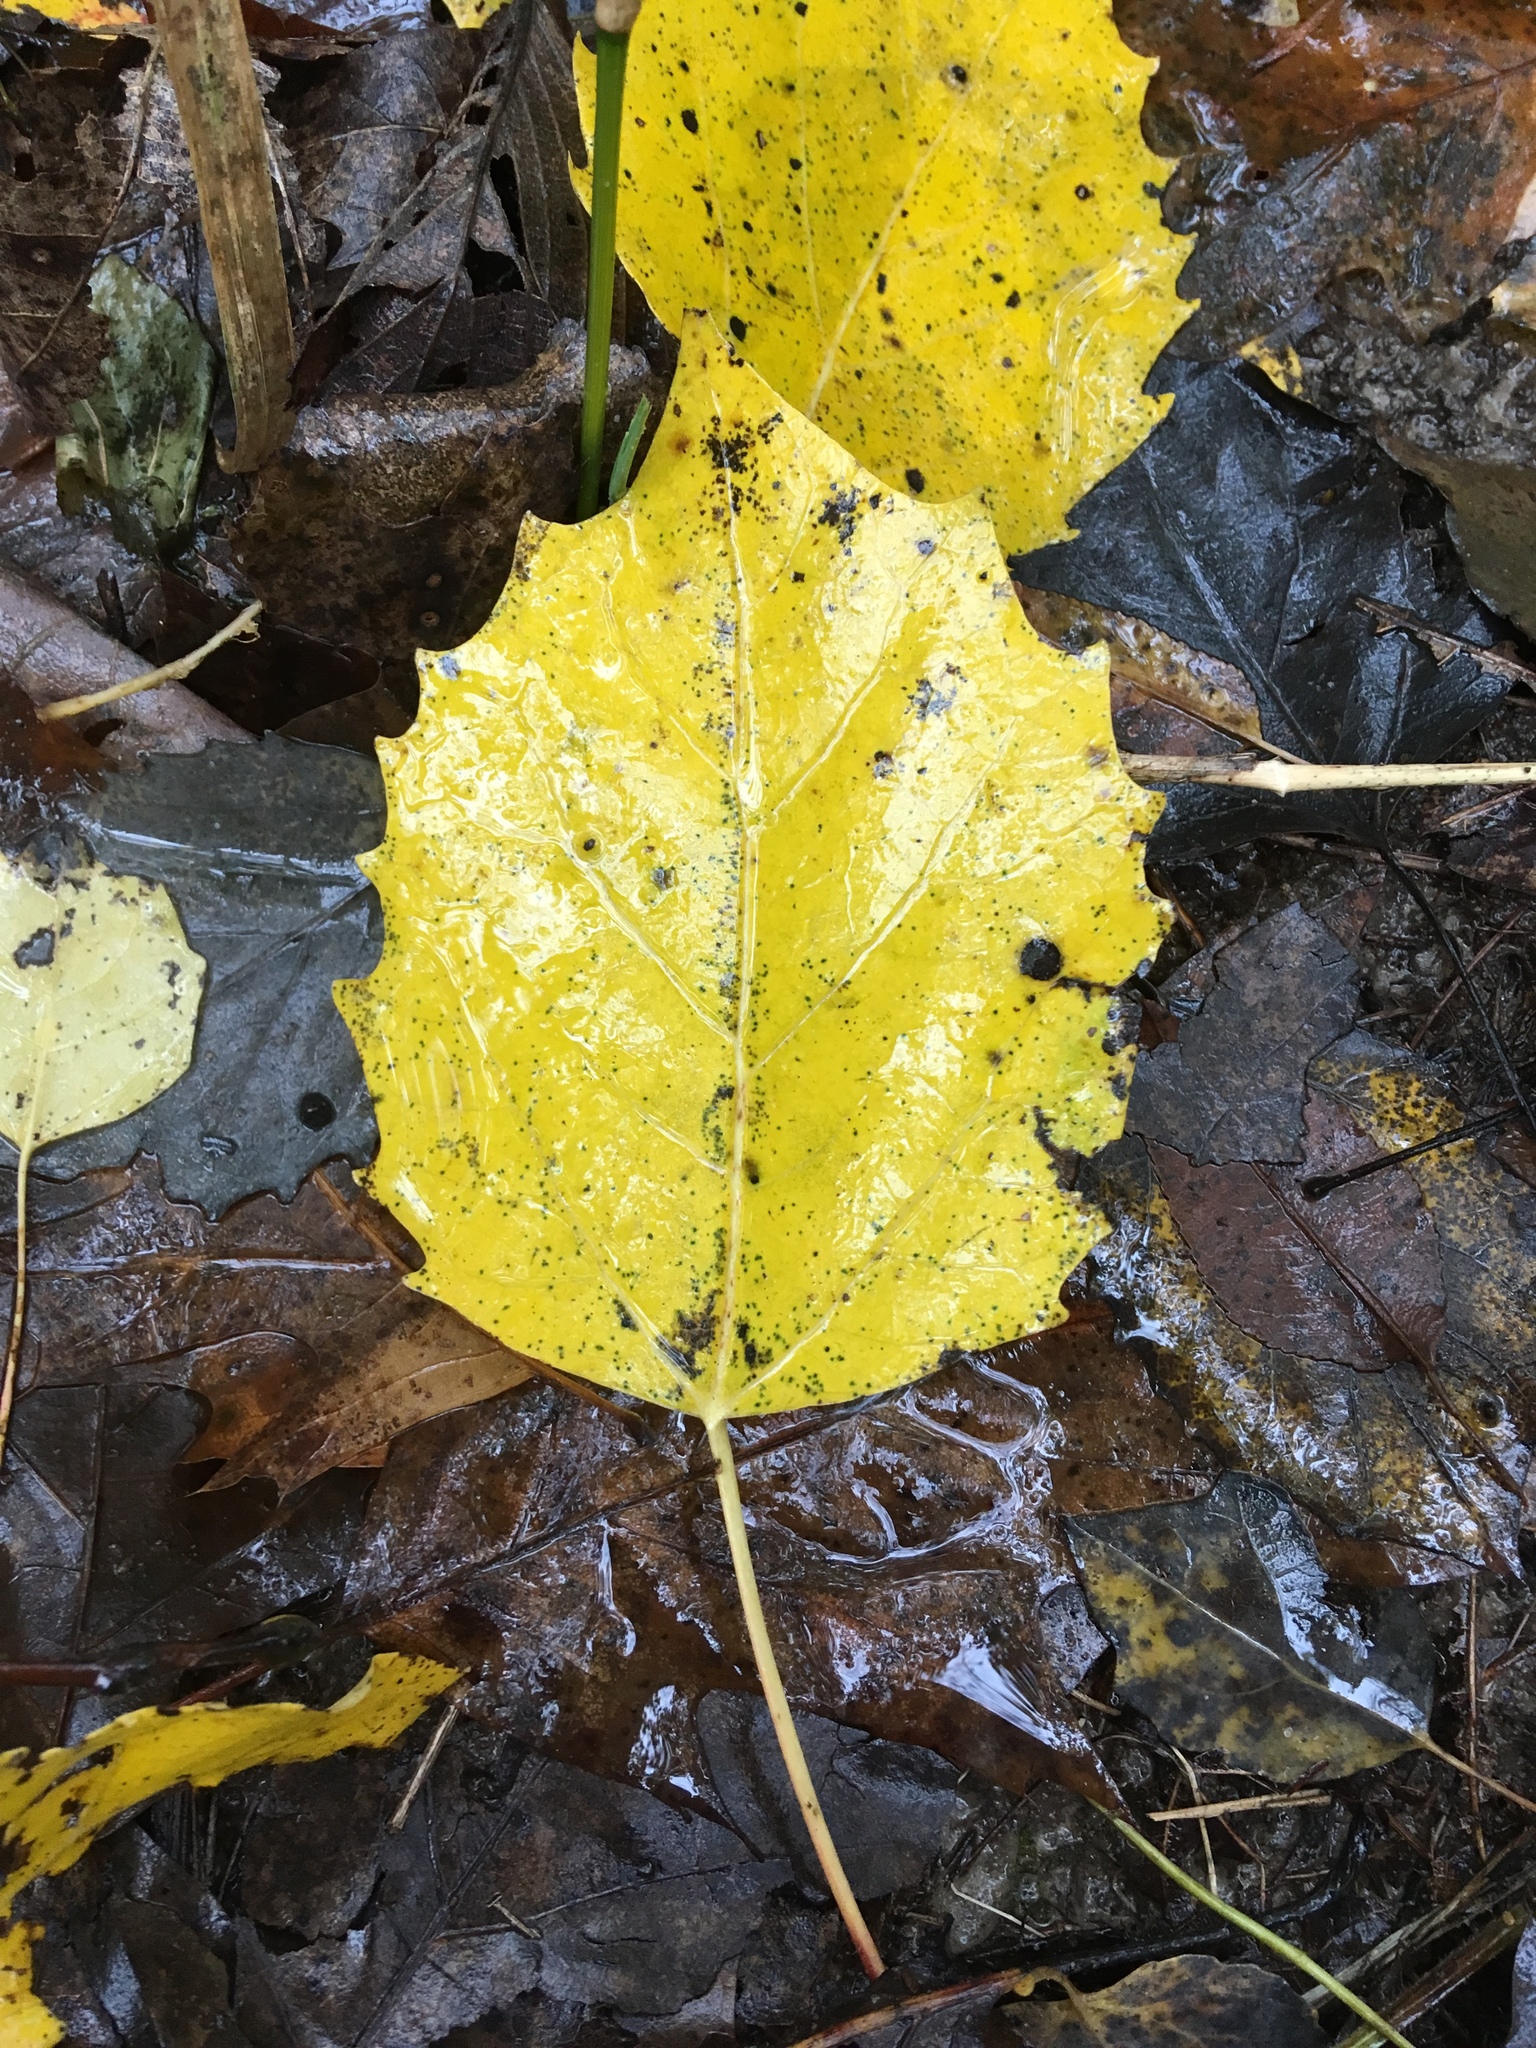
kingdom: Plantae
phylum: Tracheophyta
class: Magnoliopsida
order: Malpighiales
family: Salicaceae
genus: Populus
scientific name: Populus grandidentata
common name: Bigtooth aspen
